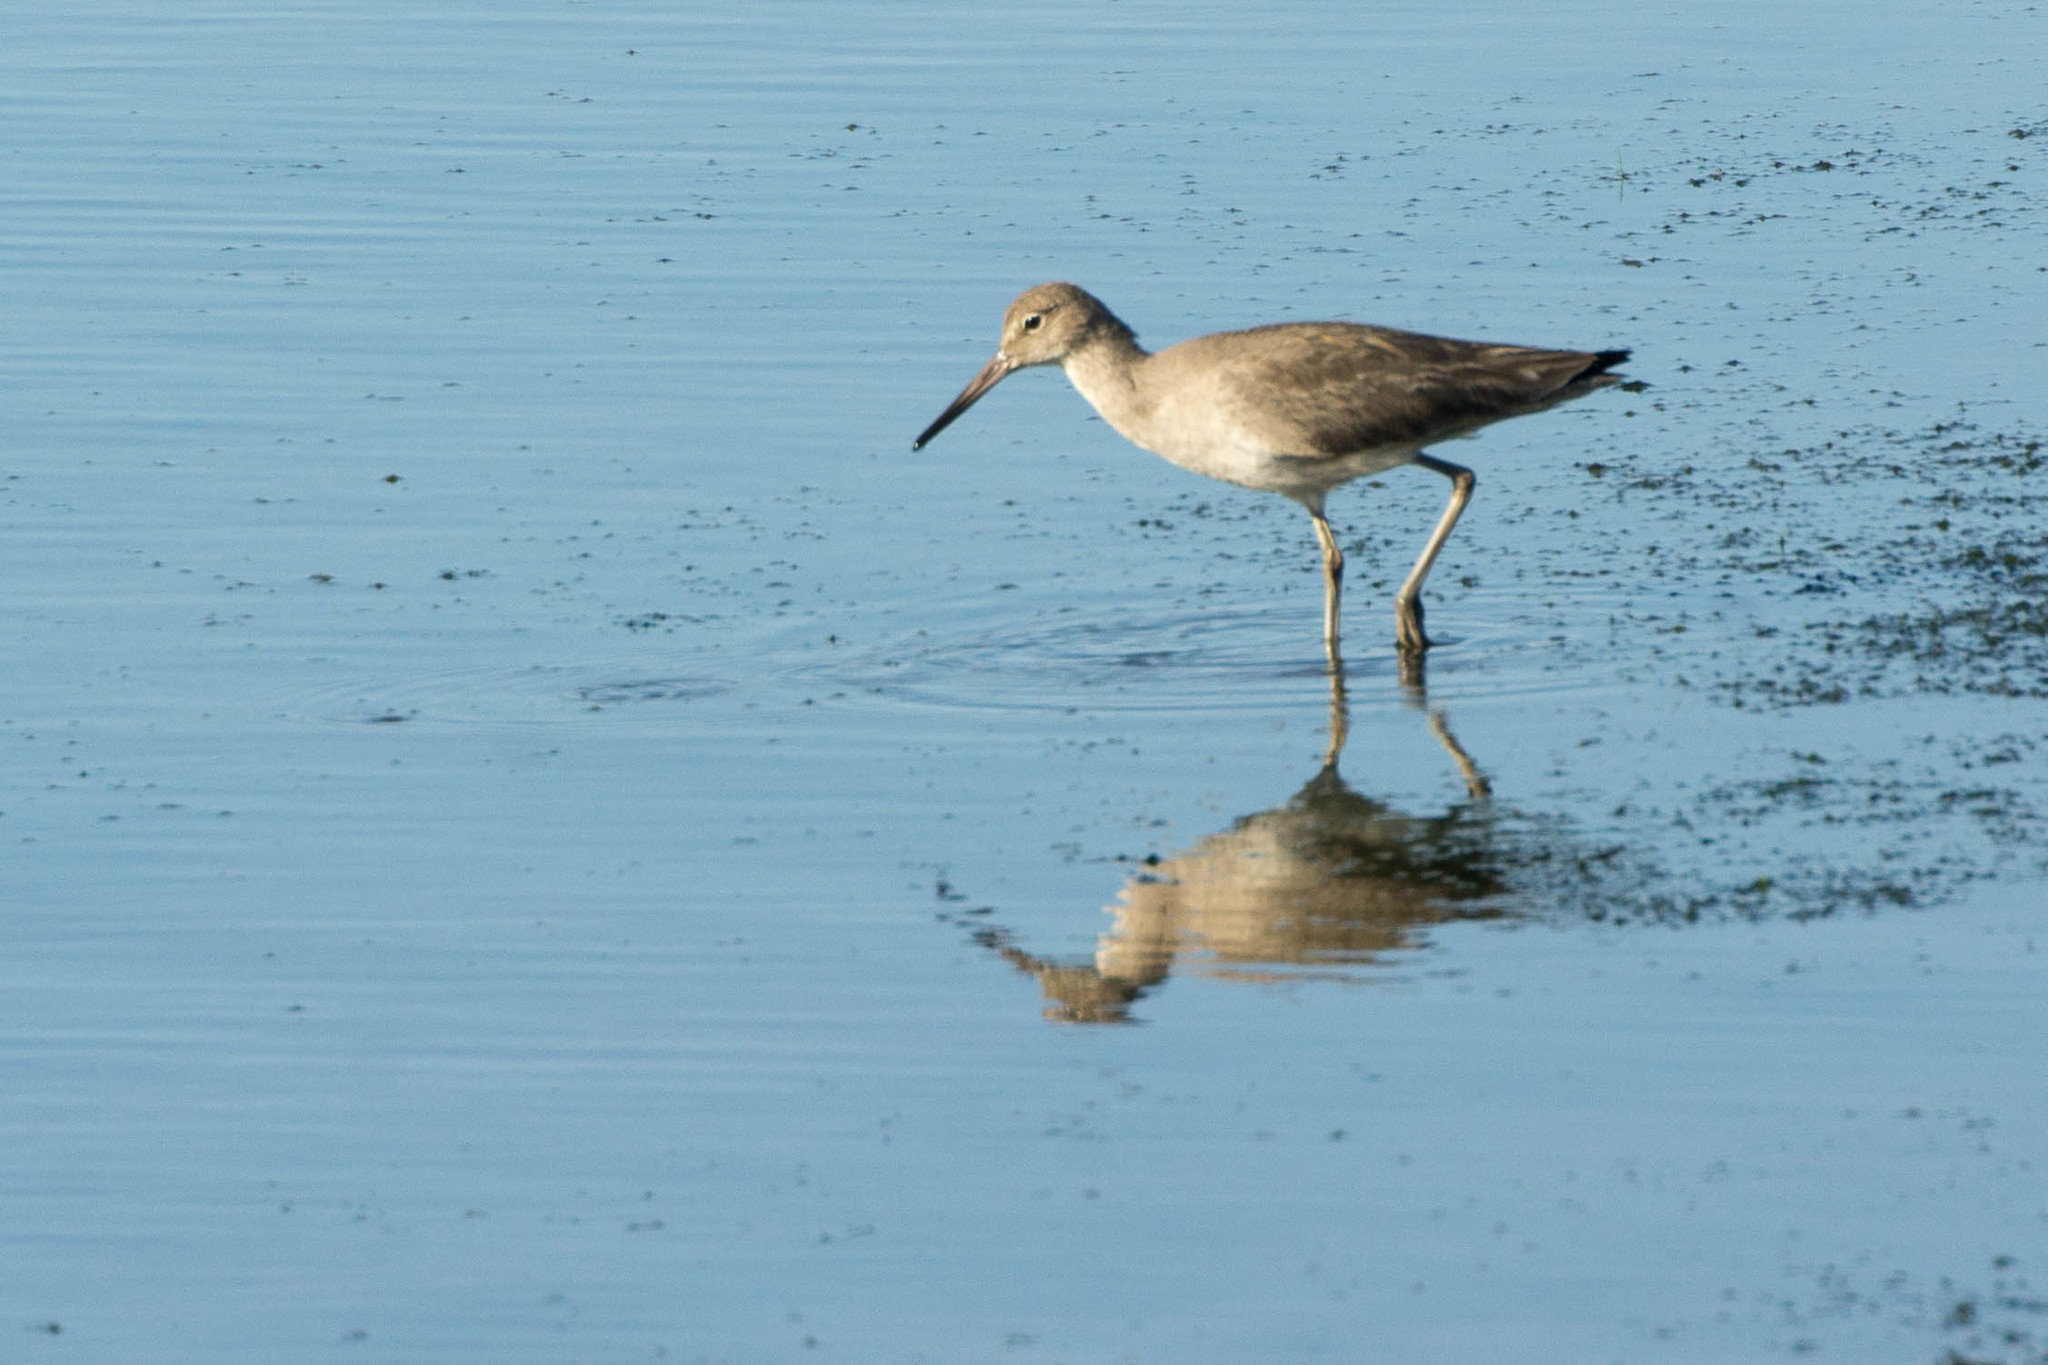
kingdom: Animalia
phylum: Chordata
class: Aves
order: Charadriiformes
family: Scolopacidae
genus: Tringa
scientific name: Tringa semipalmata
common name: Willet
